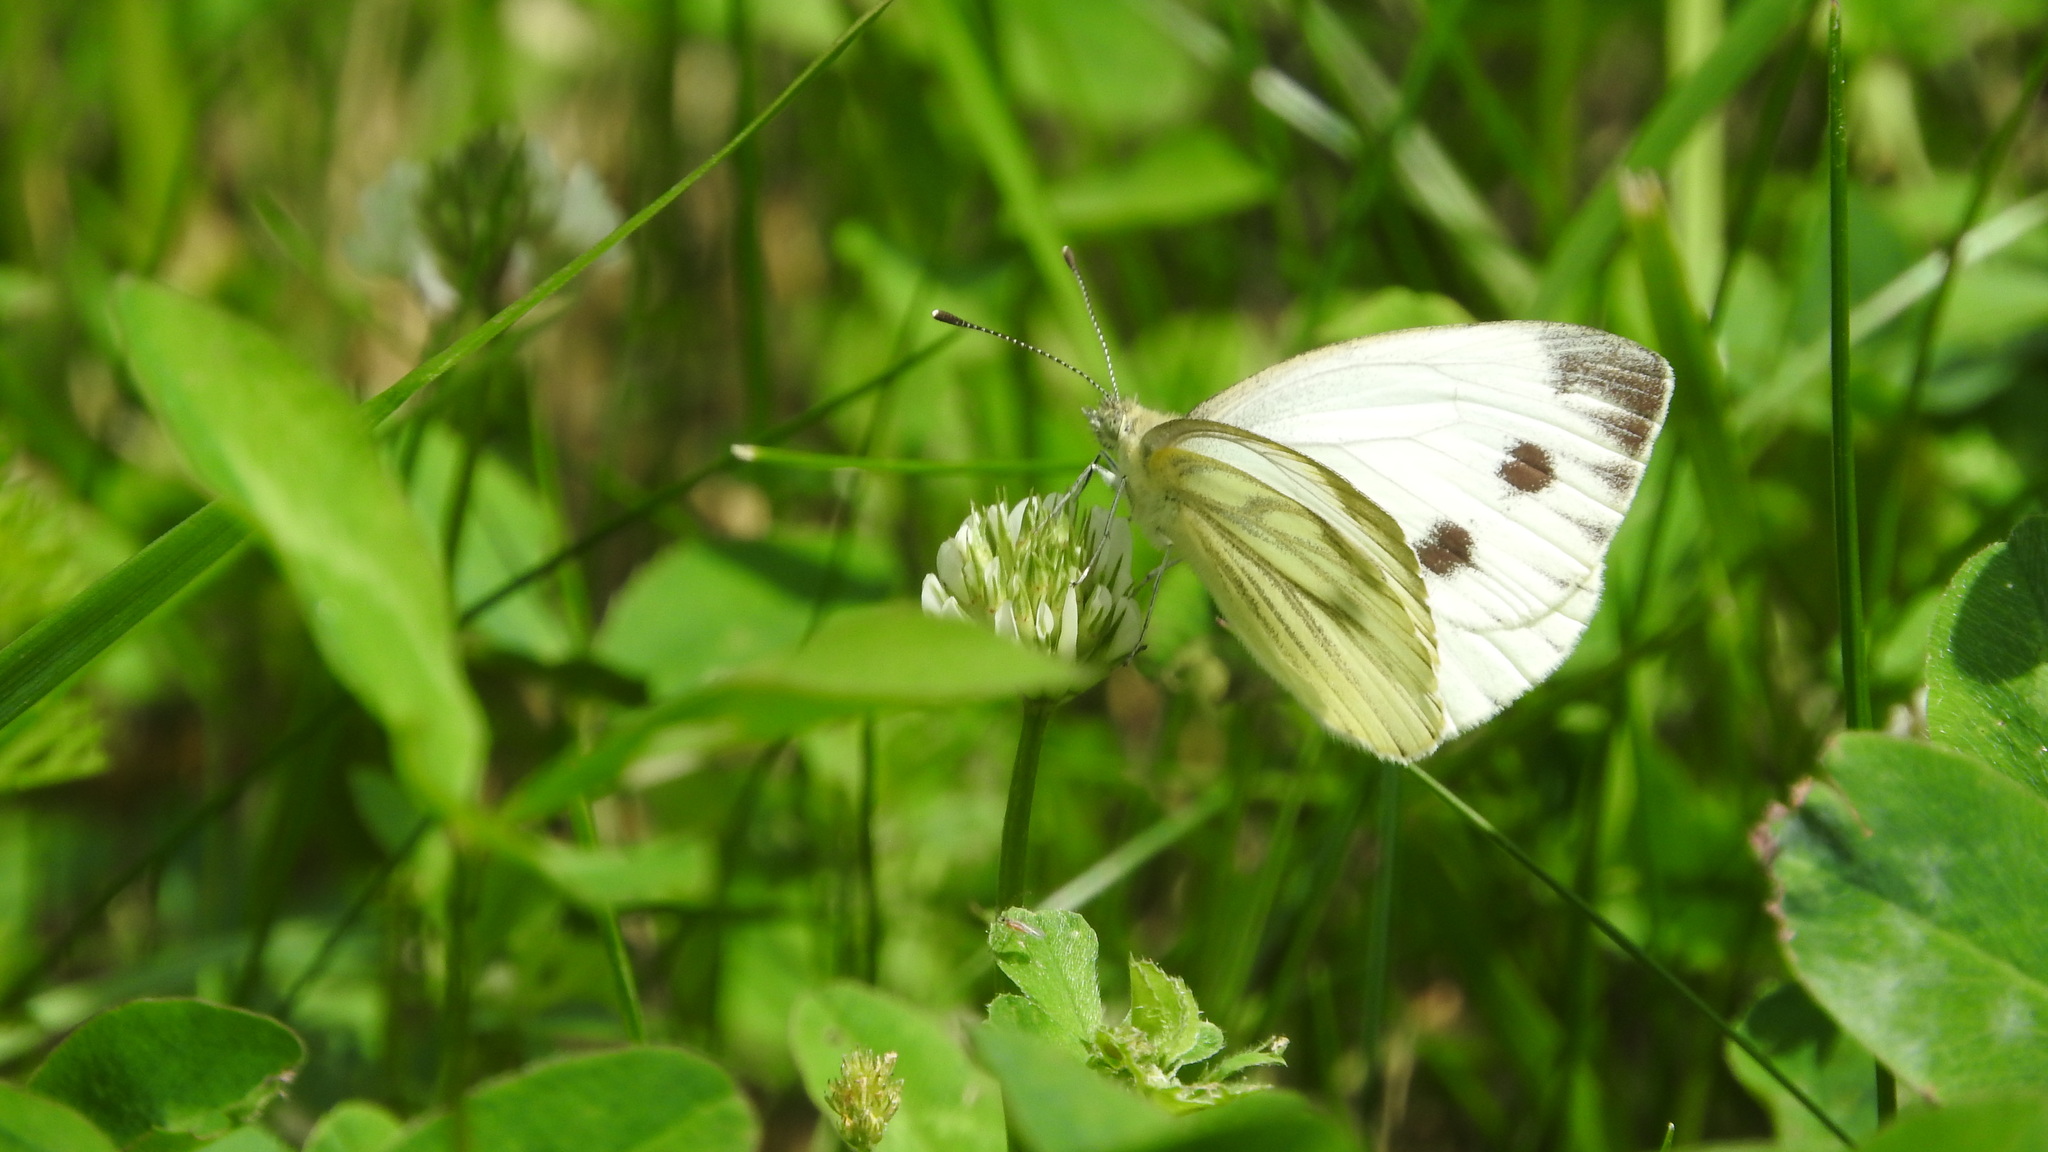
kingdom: Animalia
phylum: Arthropoda
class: Insecta
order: Lepidoptera
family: Pieridae
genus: Pieris
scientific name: Pieris napi
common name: Green-veined white
